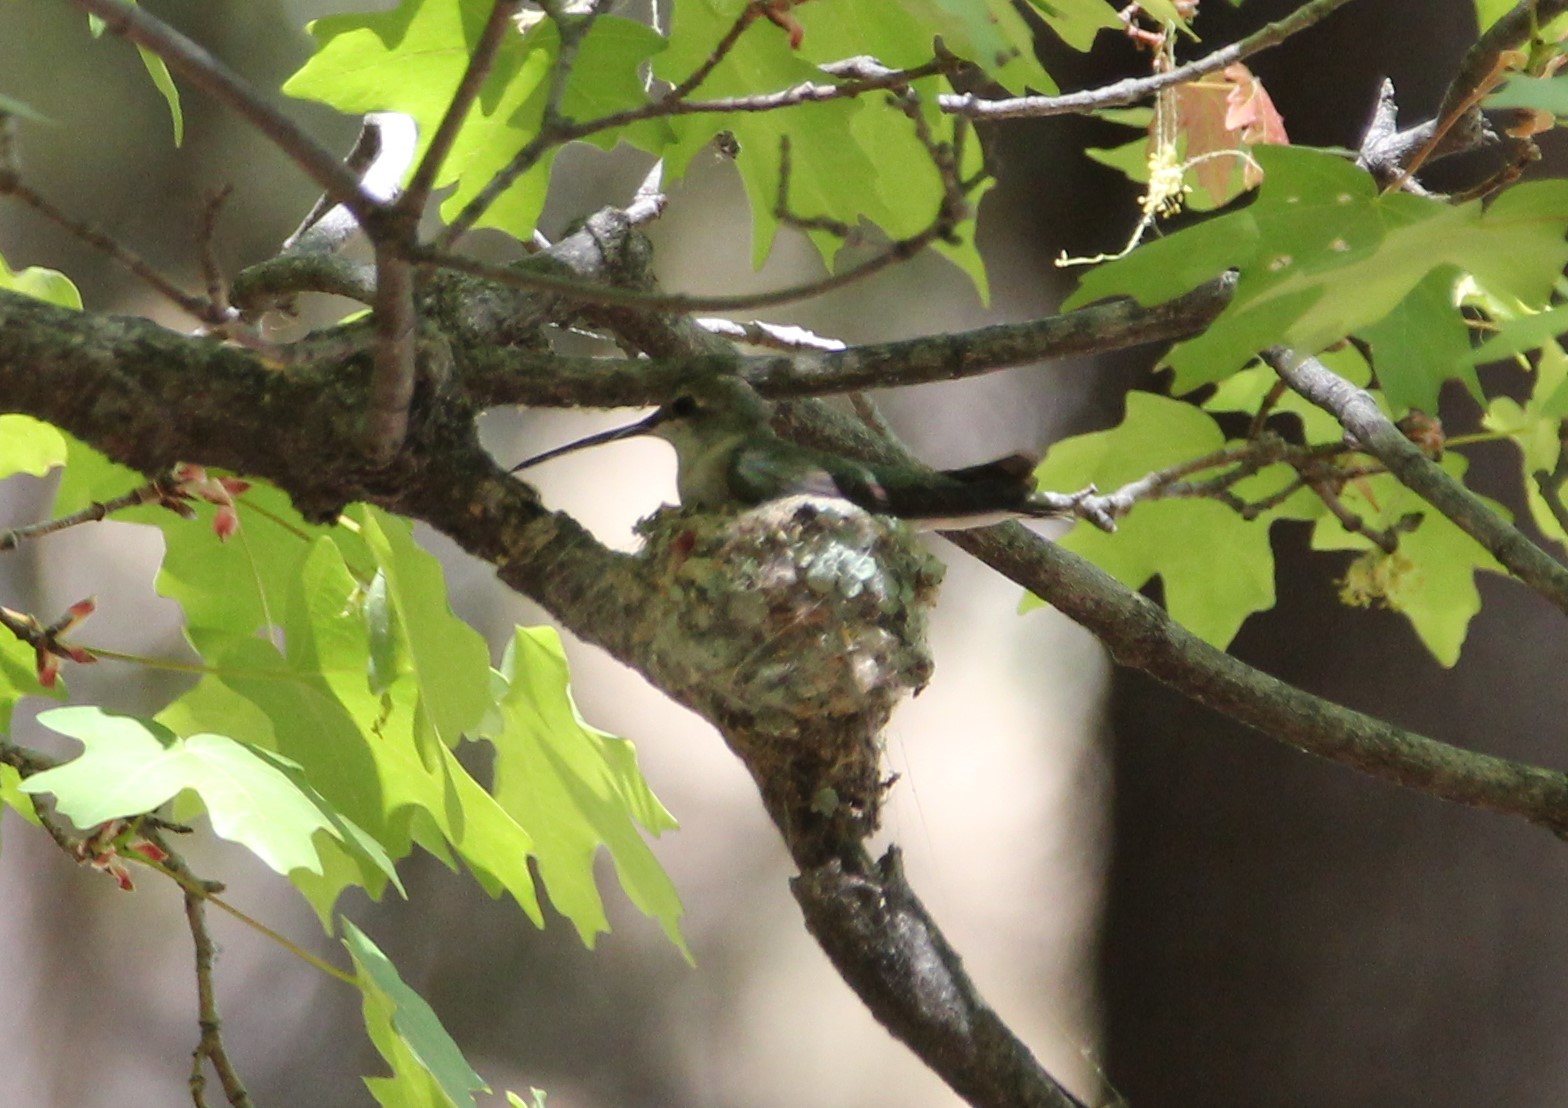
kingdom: Animalia
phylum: Chordata
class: Aves
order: Apodiformes
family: Trochilidae
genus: Archilochus
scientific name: Archilochus alexandri
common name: Black-chinned hummingbird
